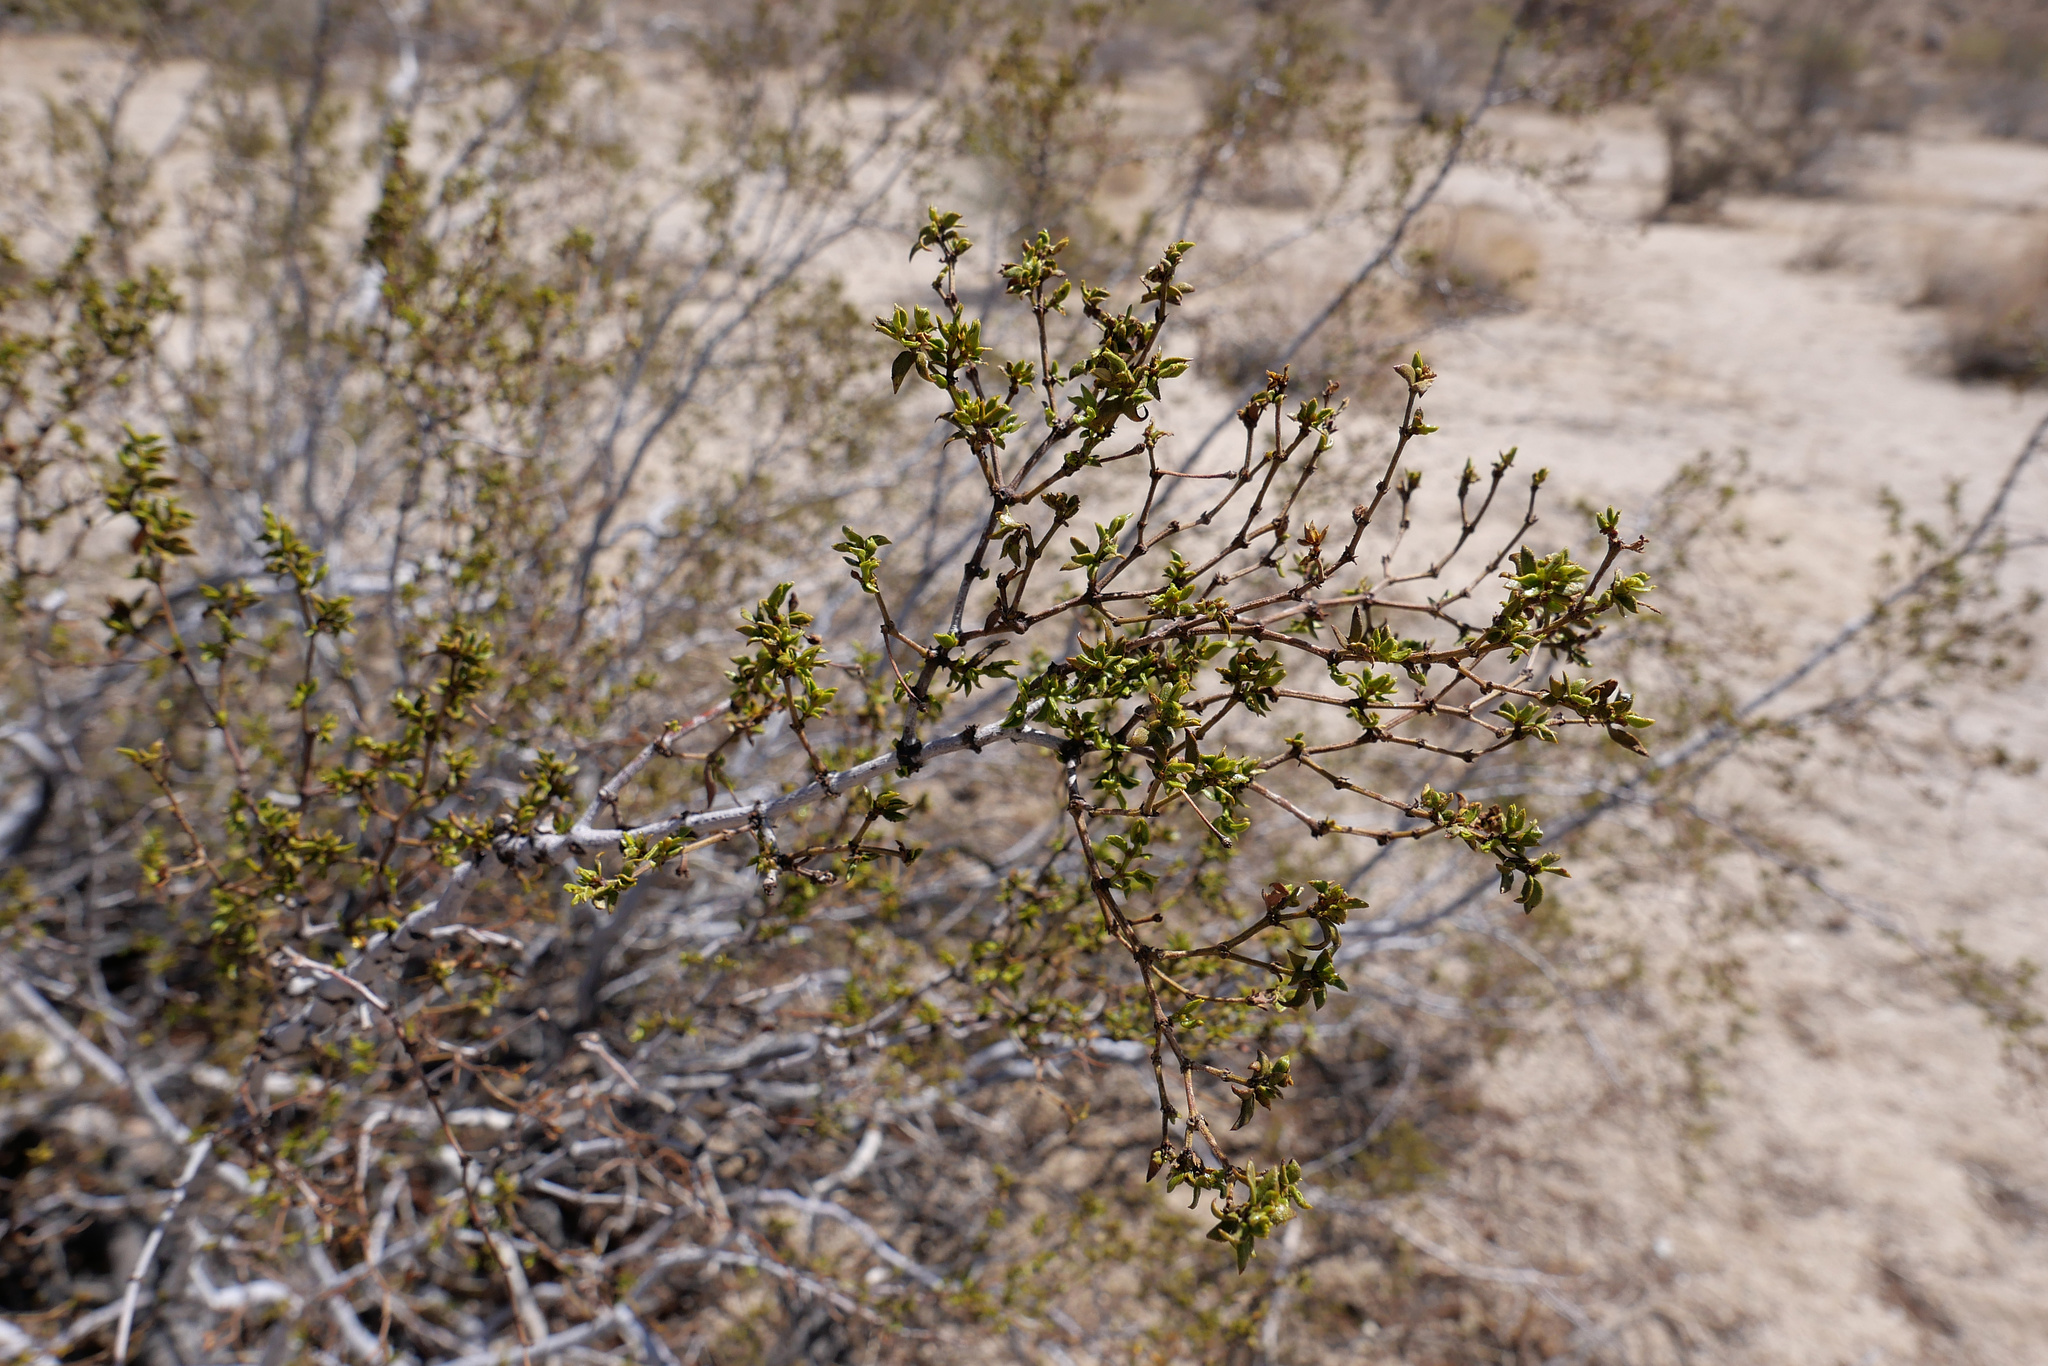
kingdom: Plantae
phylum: Tracheophyta
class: Magnoliopsida
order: Zygophyllales
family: Zygophyllaceae
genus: Larrea
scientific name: Larrea tridentata
